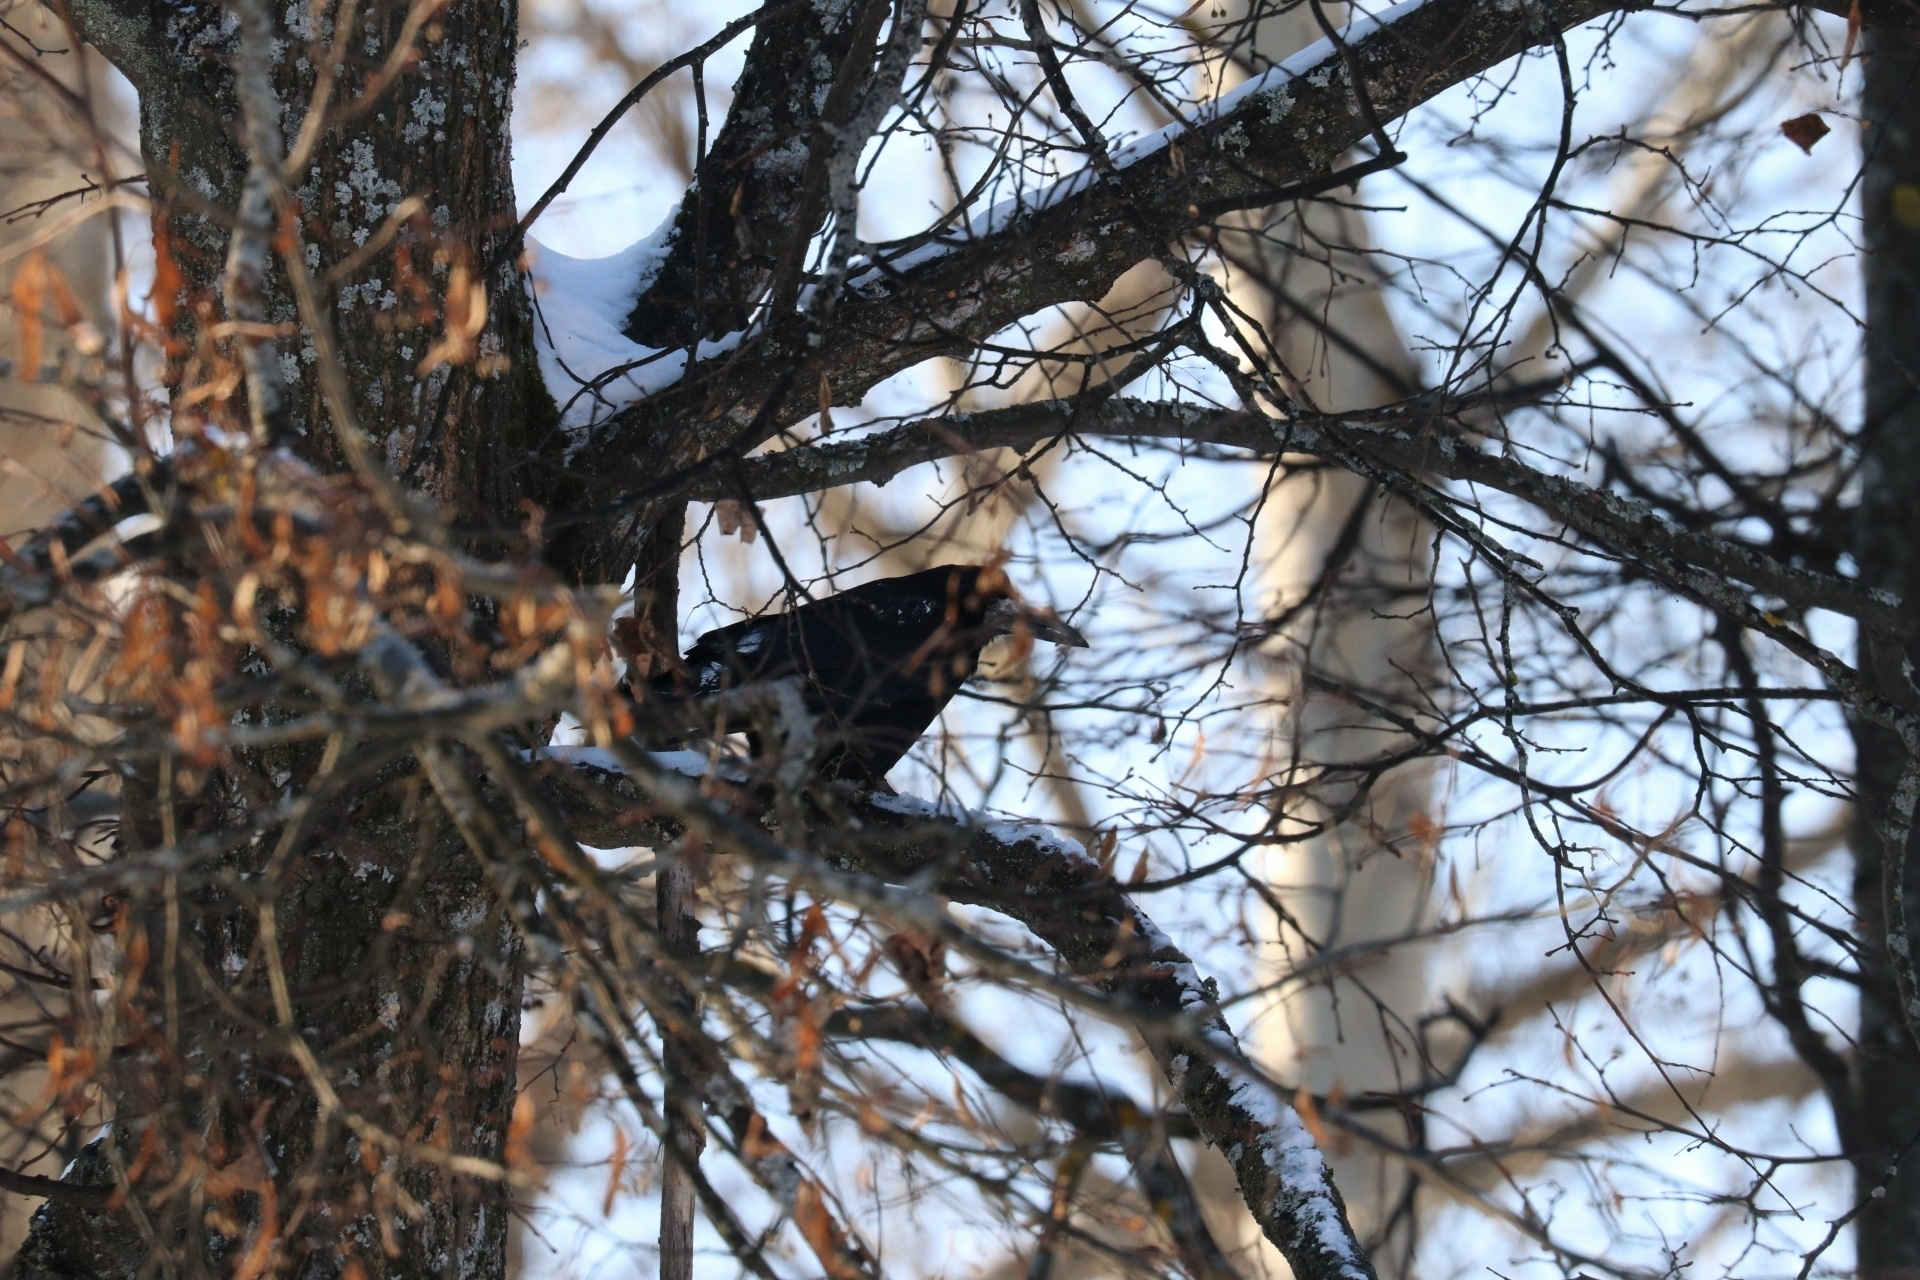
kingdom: Animalia
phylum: Chordata
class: Aves
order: Passeriformes
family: Corvidae
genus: Corvus
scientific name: Corvus frugilegus
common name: Rook
